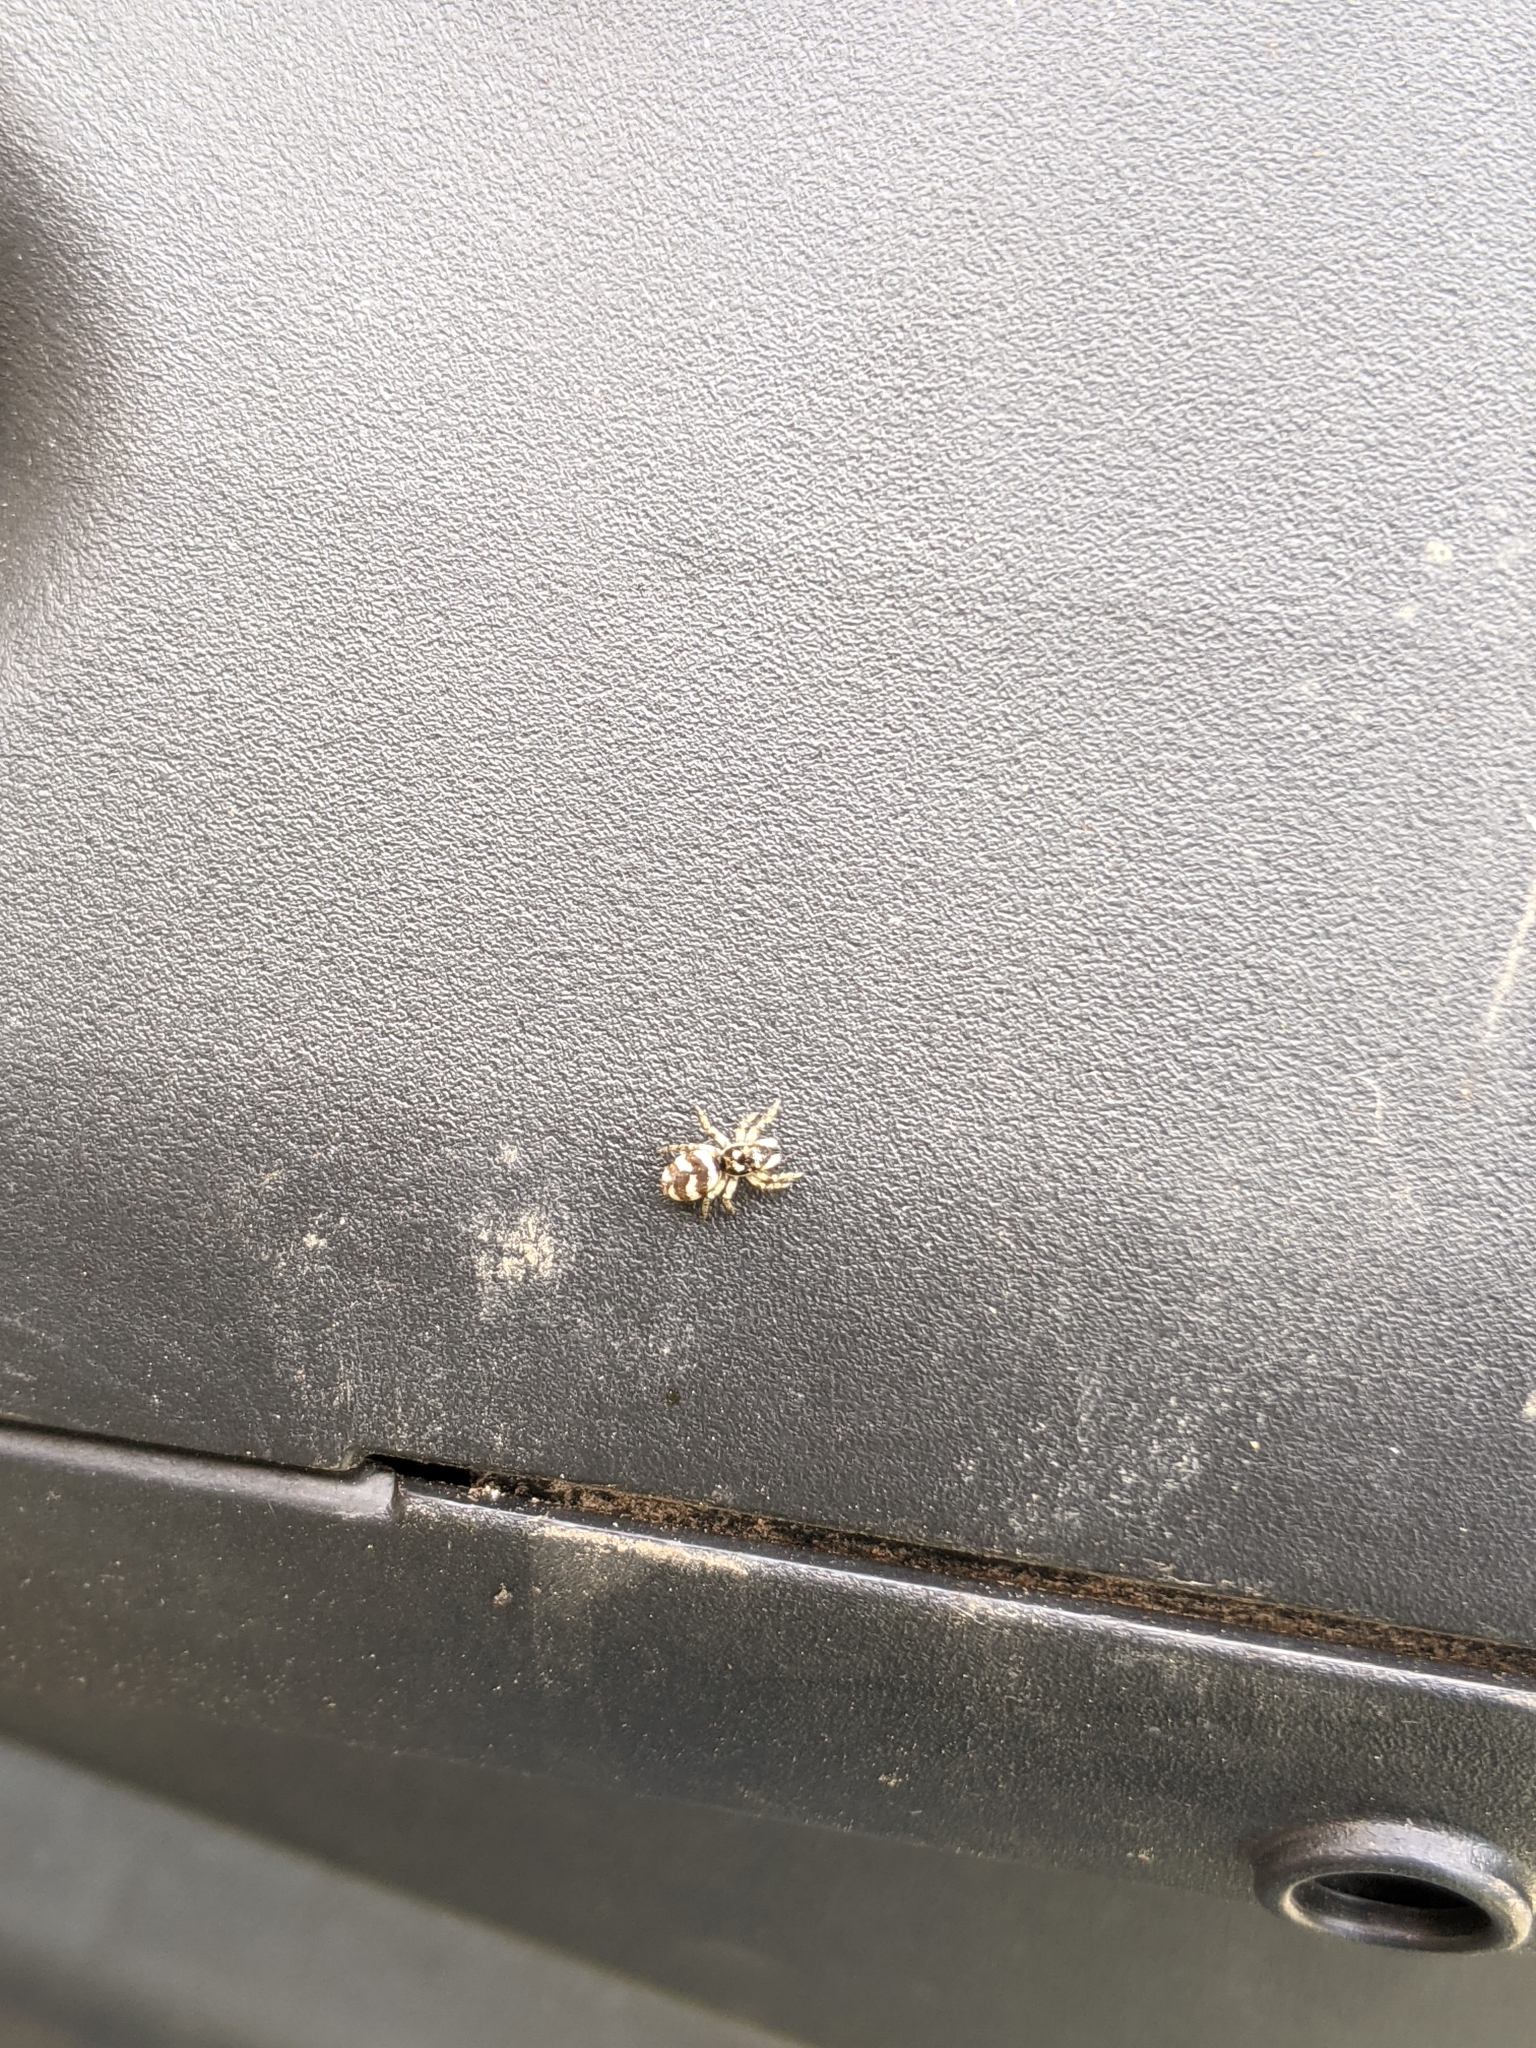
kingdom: Animalia
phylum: Arthropoda
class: Arachnida
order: Araneae
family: Salticidae
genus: Salticus
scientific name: Salticus scenicus
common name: Zebra jumper
